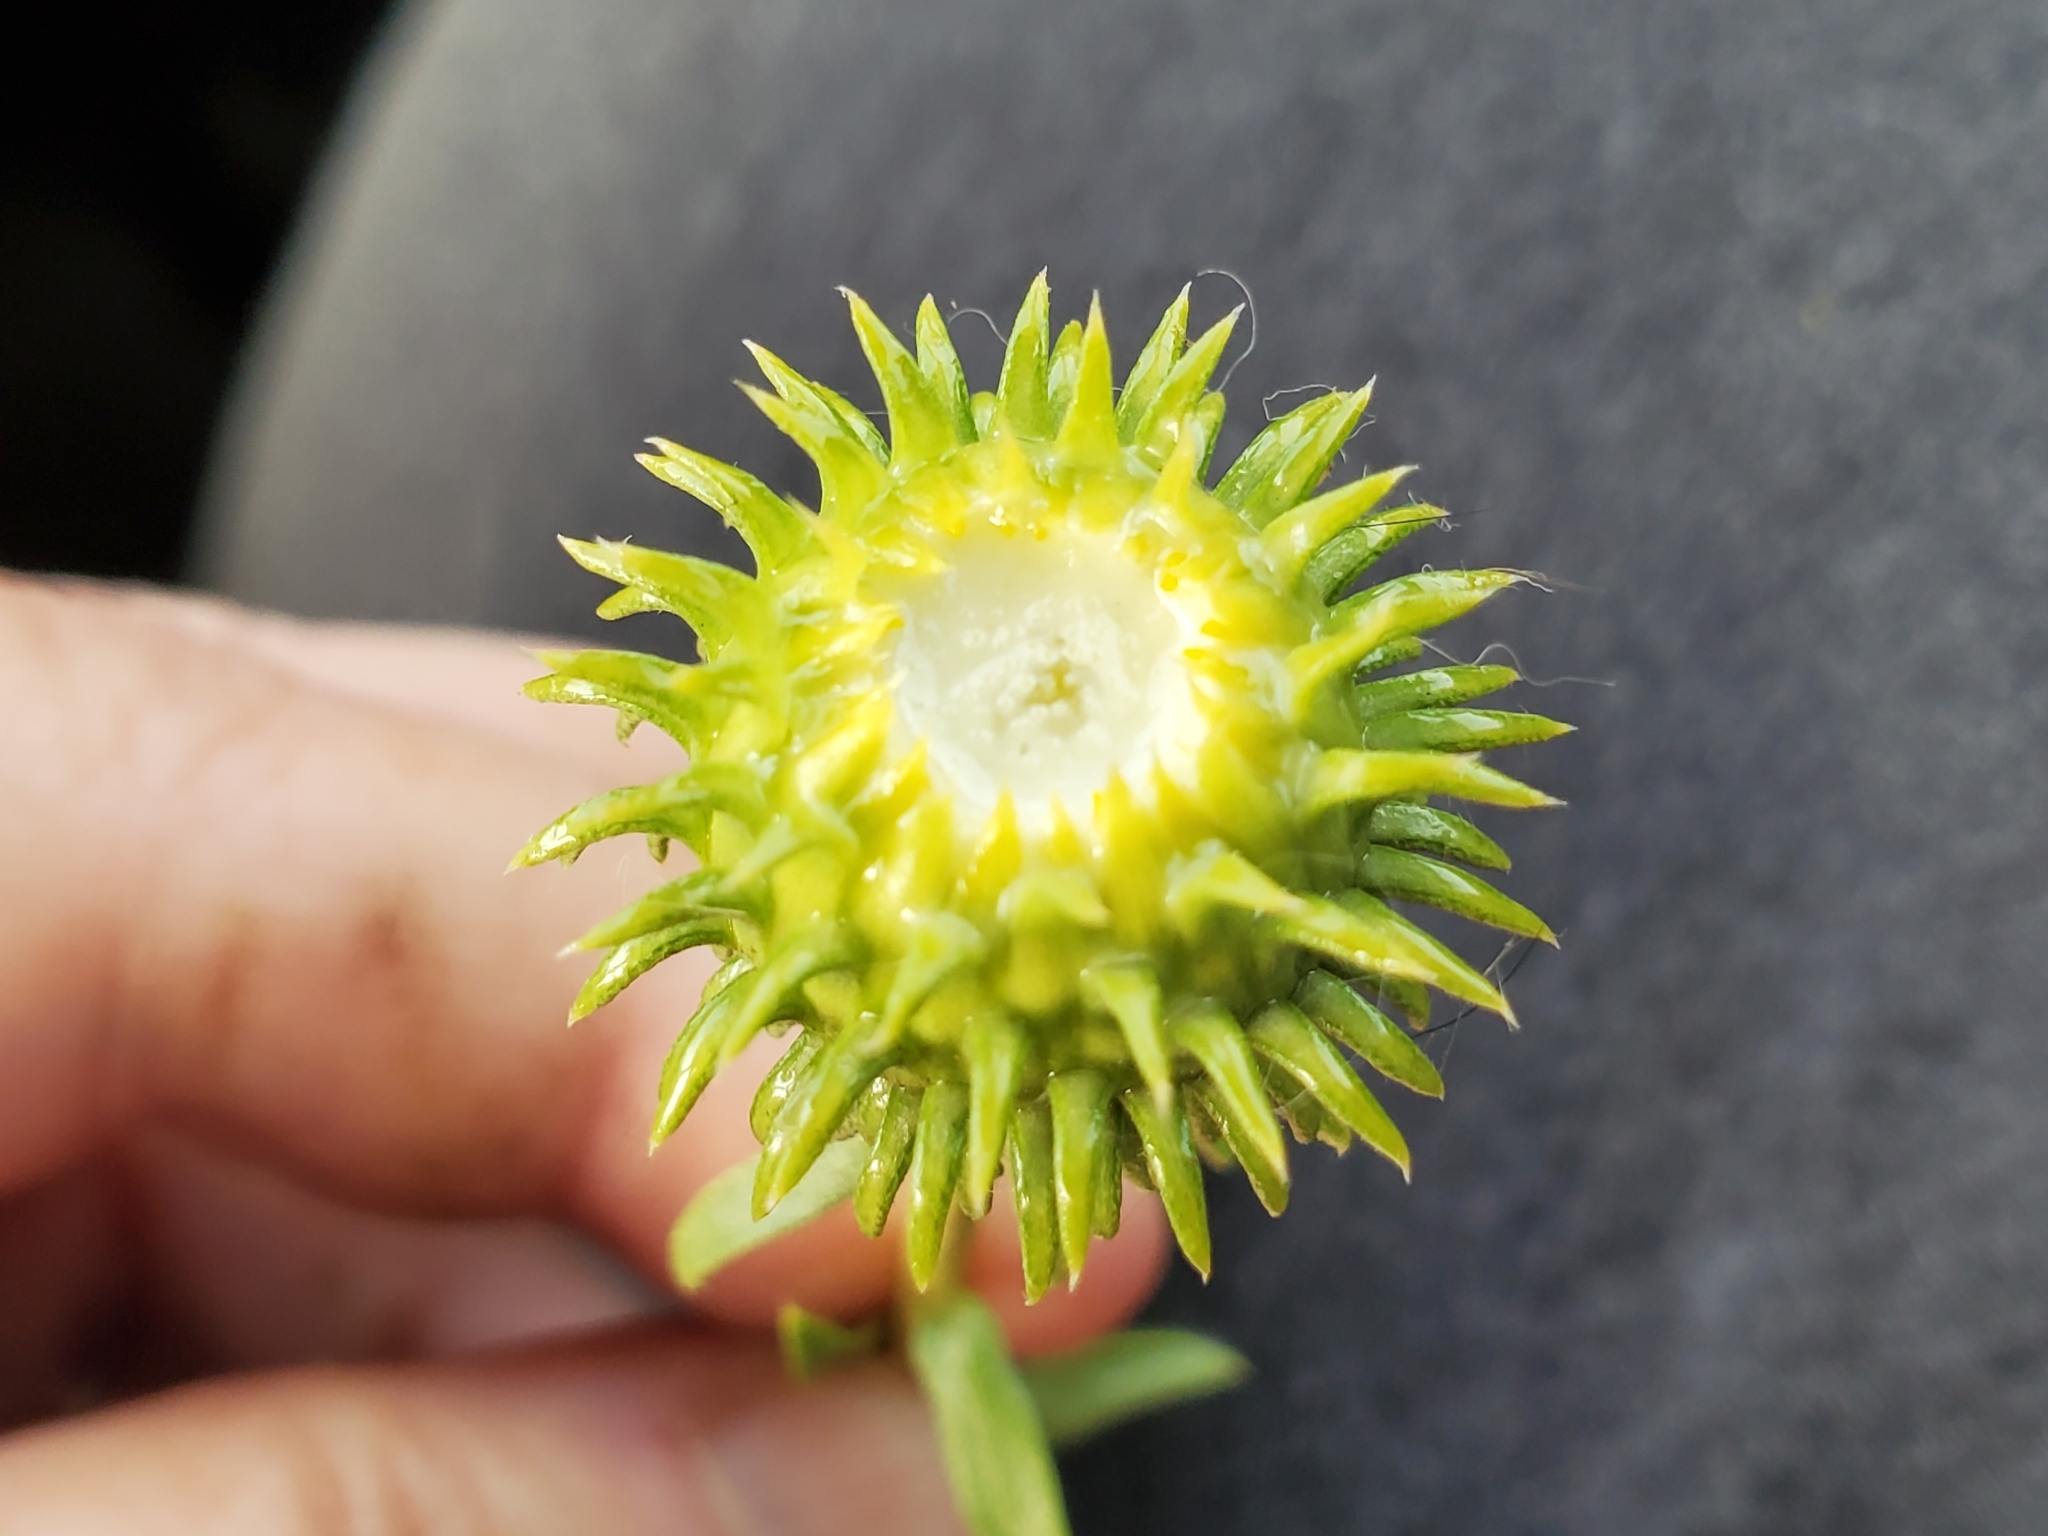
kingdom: Plantae
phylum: Tracheophyta
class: Magnoliopsida
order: Asterales
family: Asteraceae
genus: Grindelia
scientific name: Grindelia hirsutula
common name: Hairy gumweed
